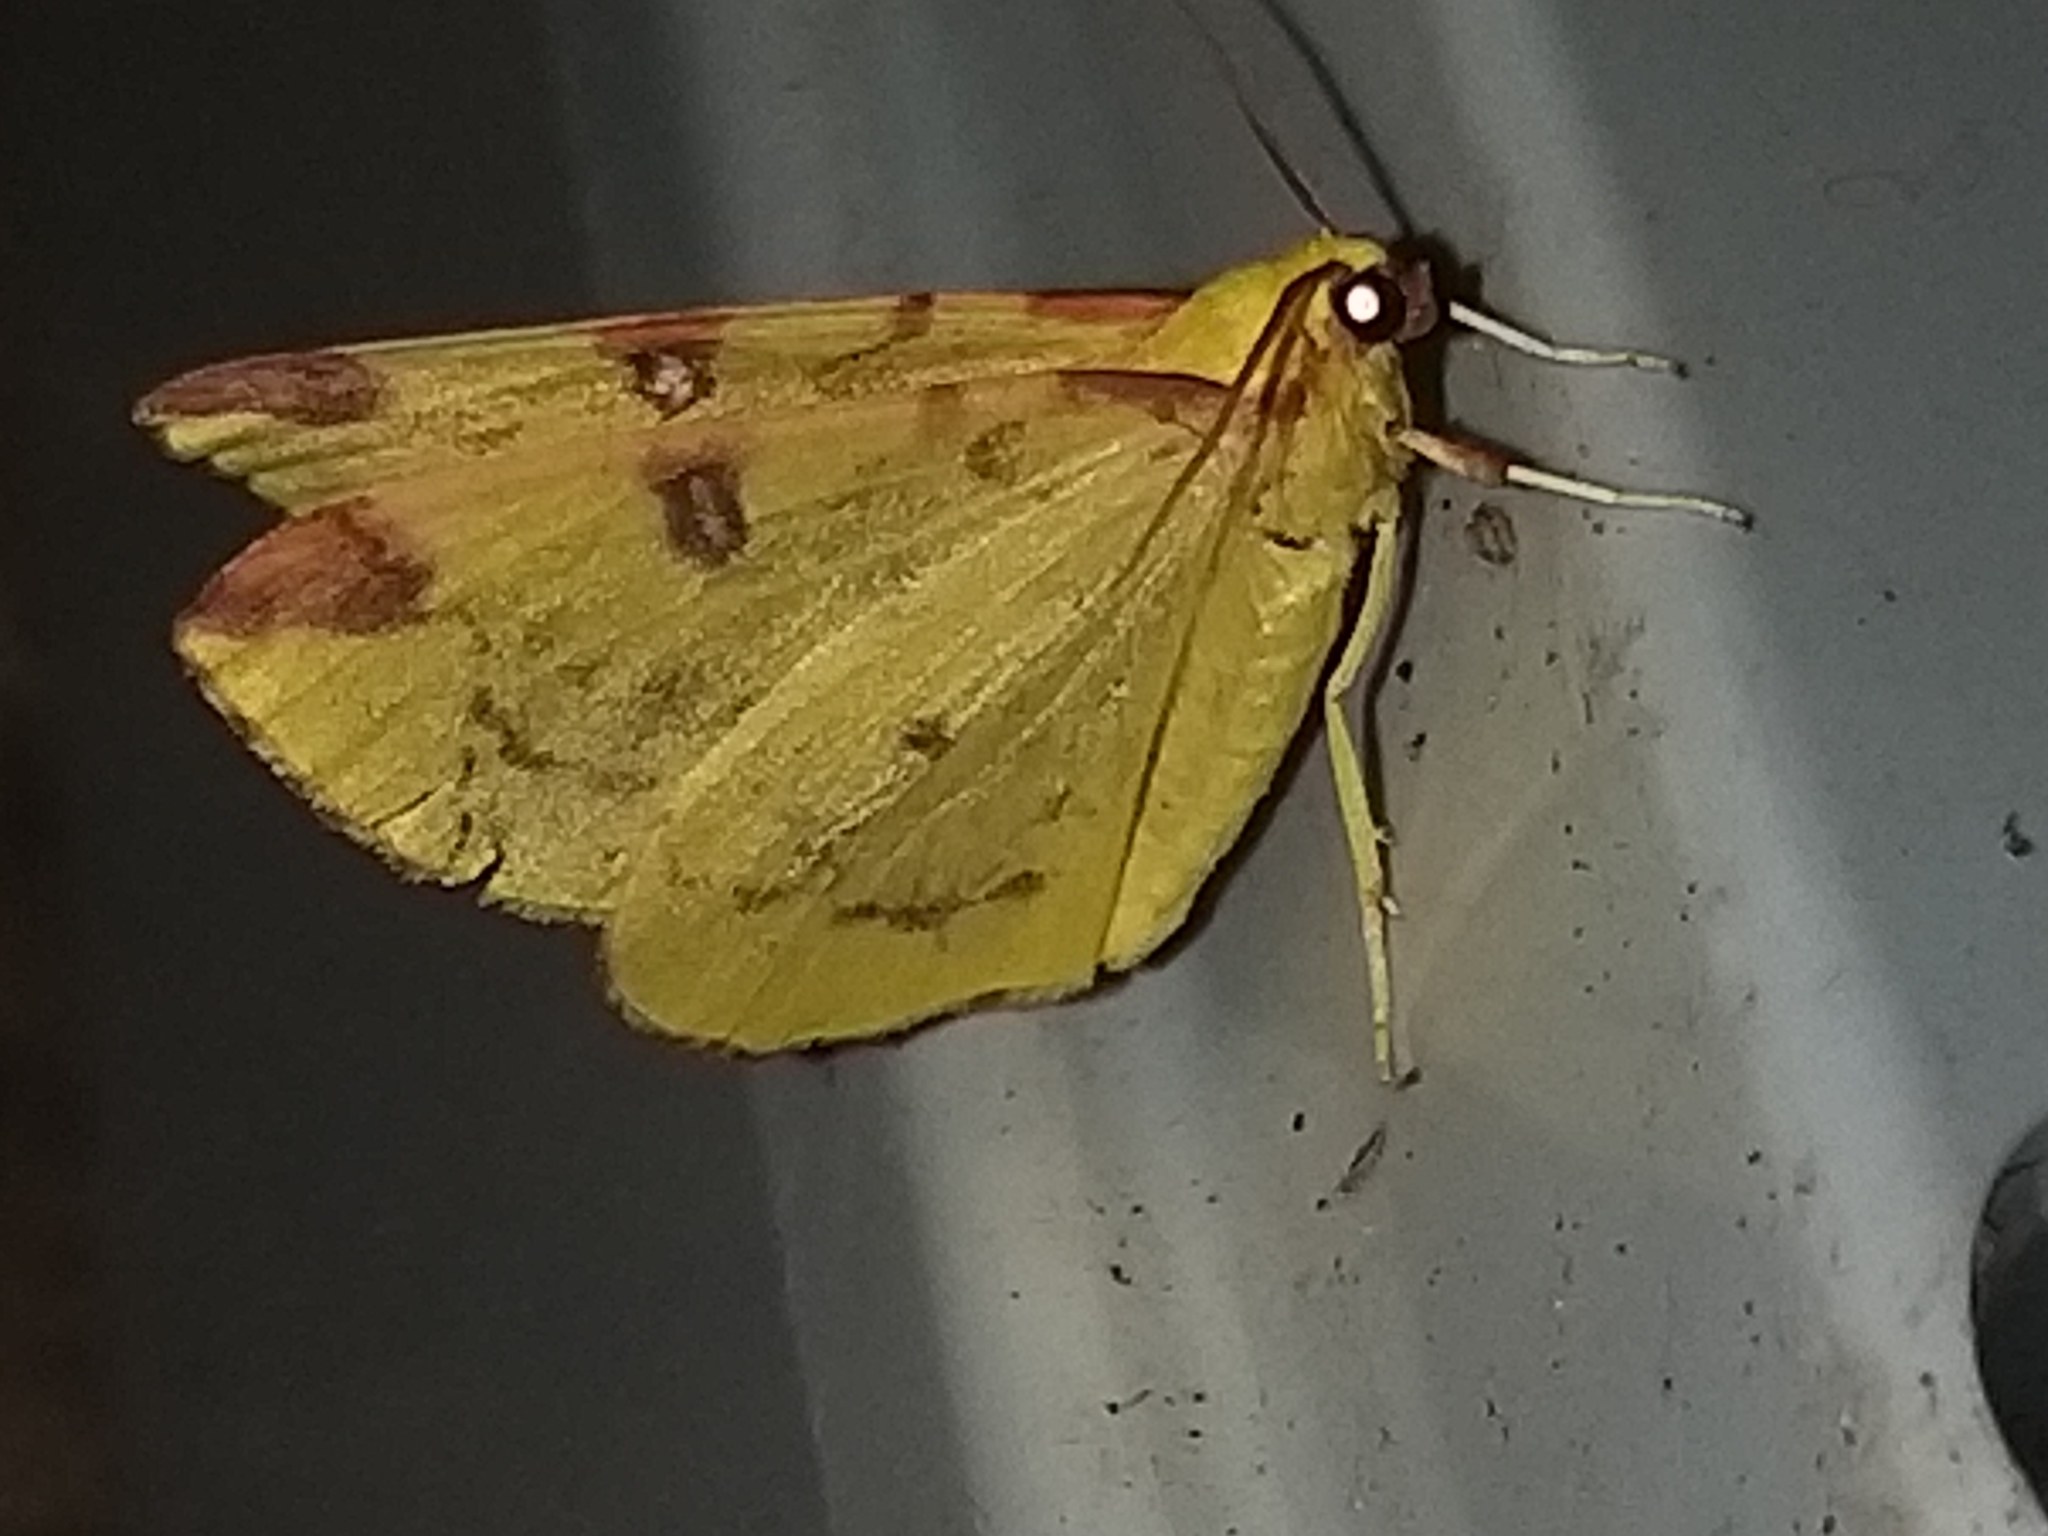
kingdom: Animalia
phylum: Arthropoda
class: Insecta
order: Lepidoptera
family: Geometridae
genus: Opisthograptis
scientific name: Opisthograptis luteolata
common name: Brimstone moth
